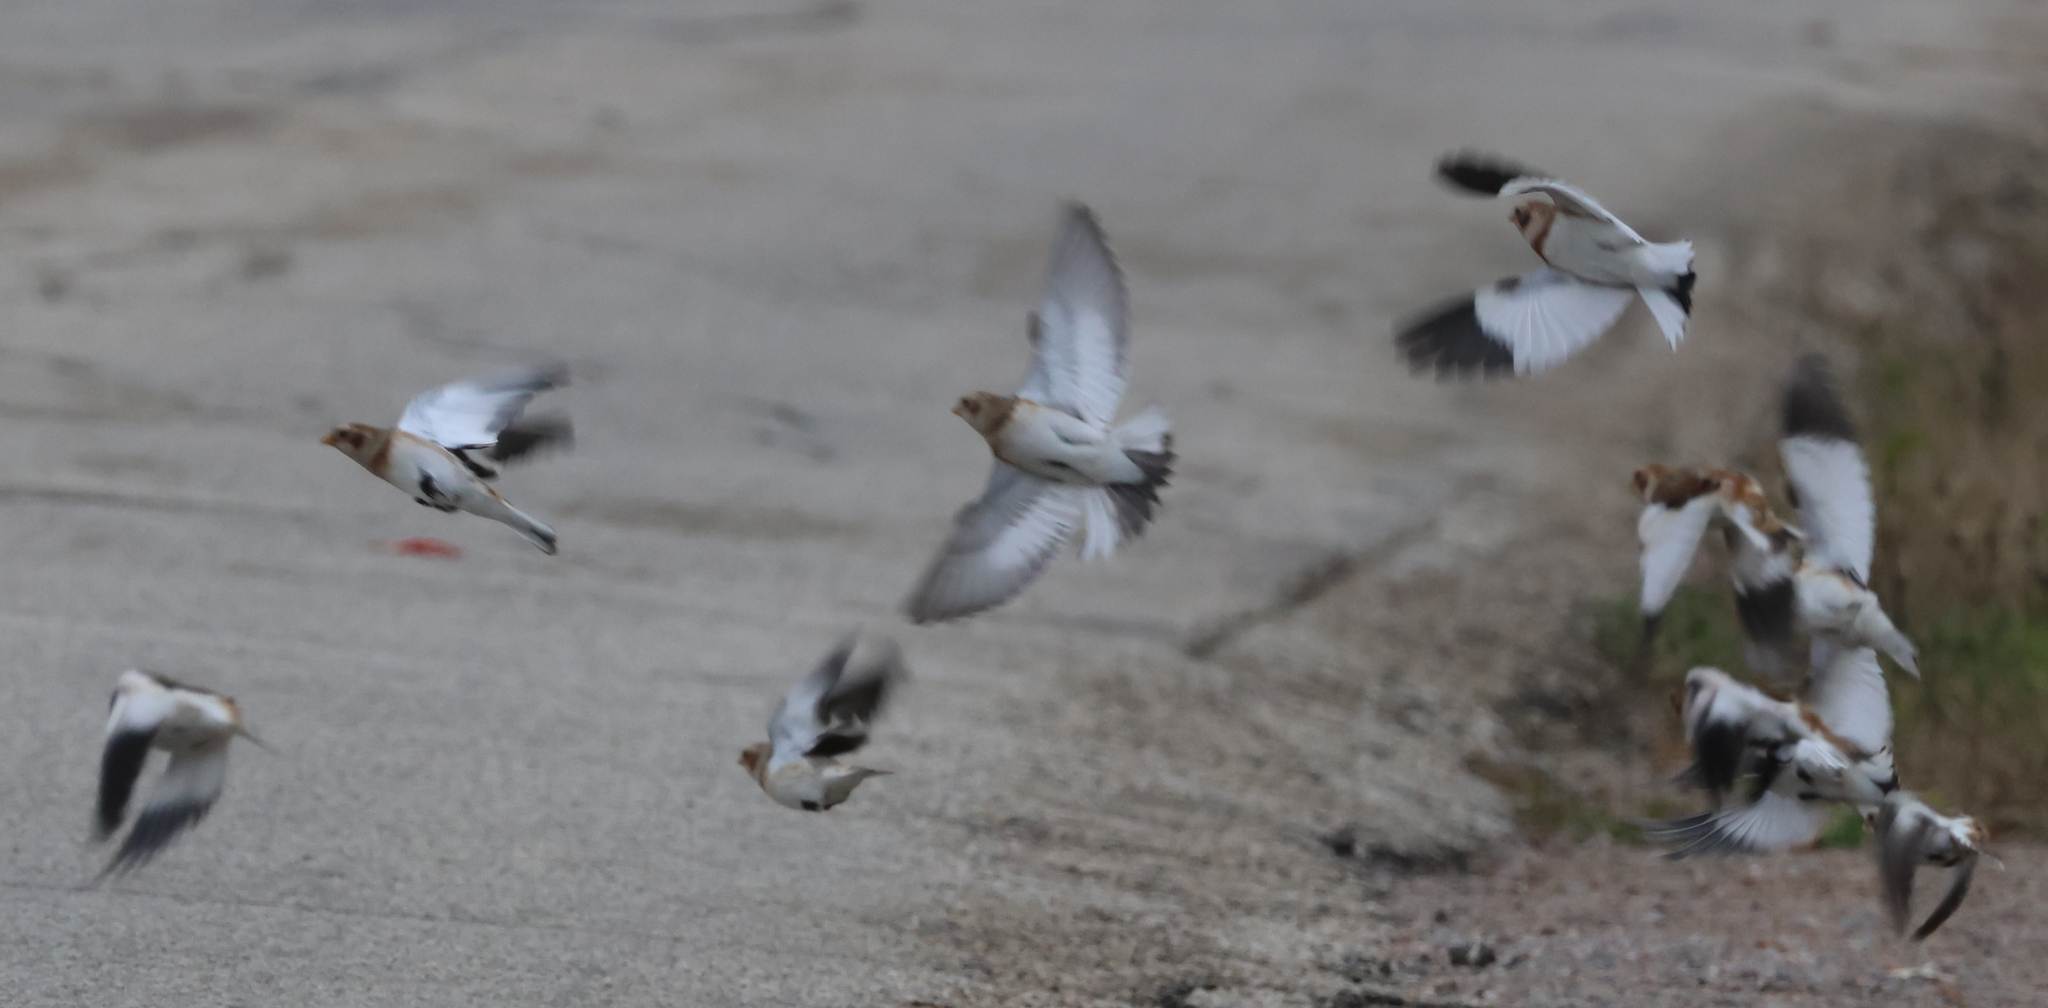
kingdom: Animalia
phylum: Chordata
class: Aves
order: Passeriformes
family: Calcariidae
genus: Plectrophenax
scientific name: Plectrophenax nivalis
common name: Snow bunting
